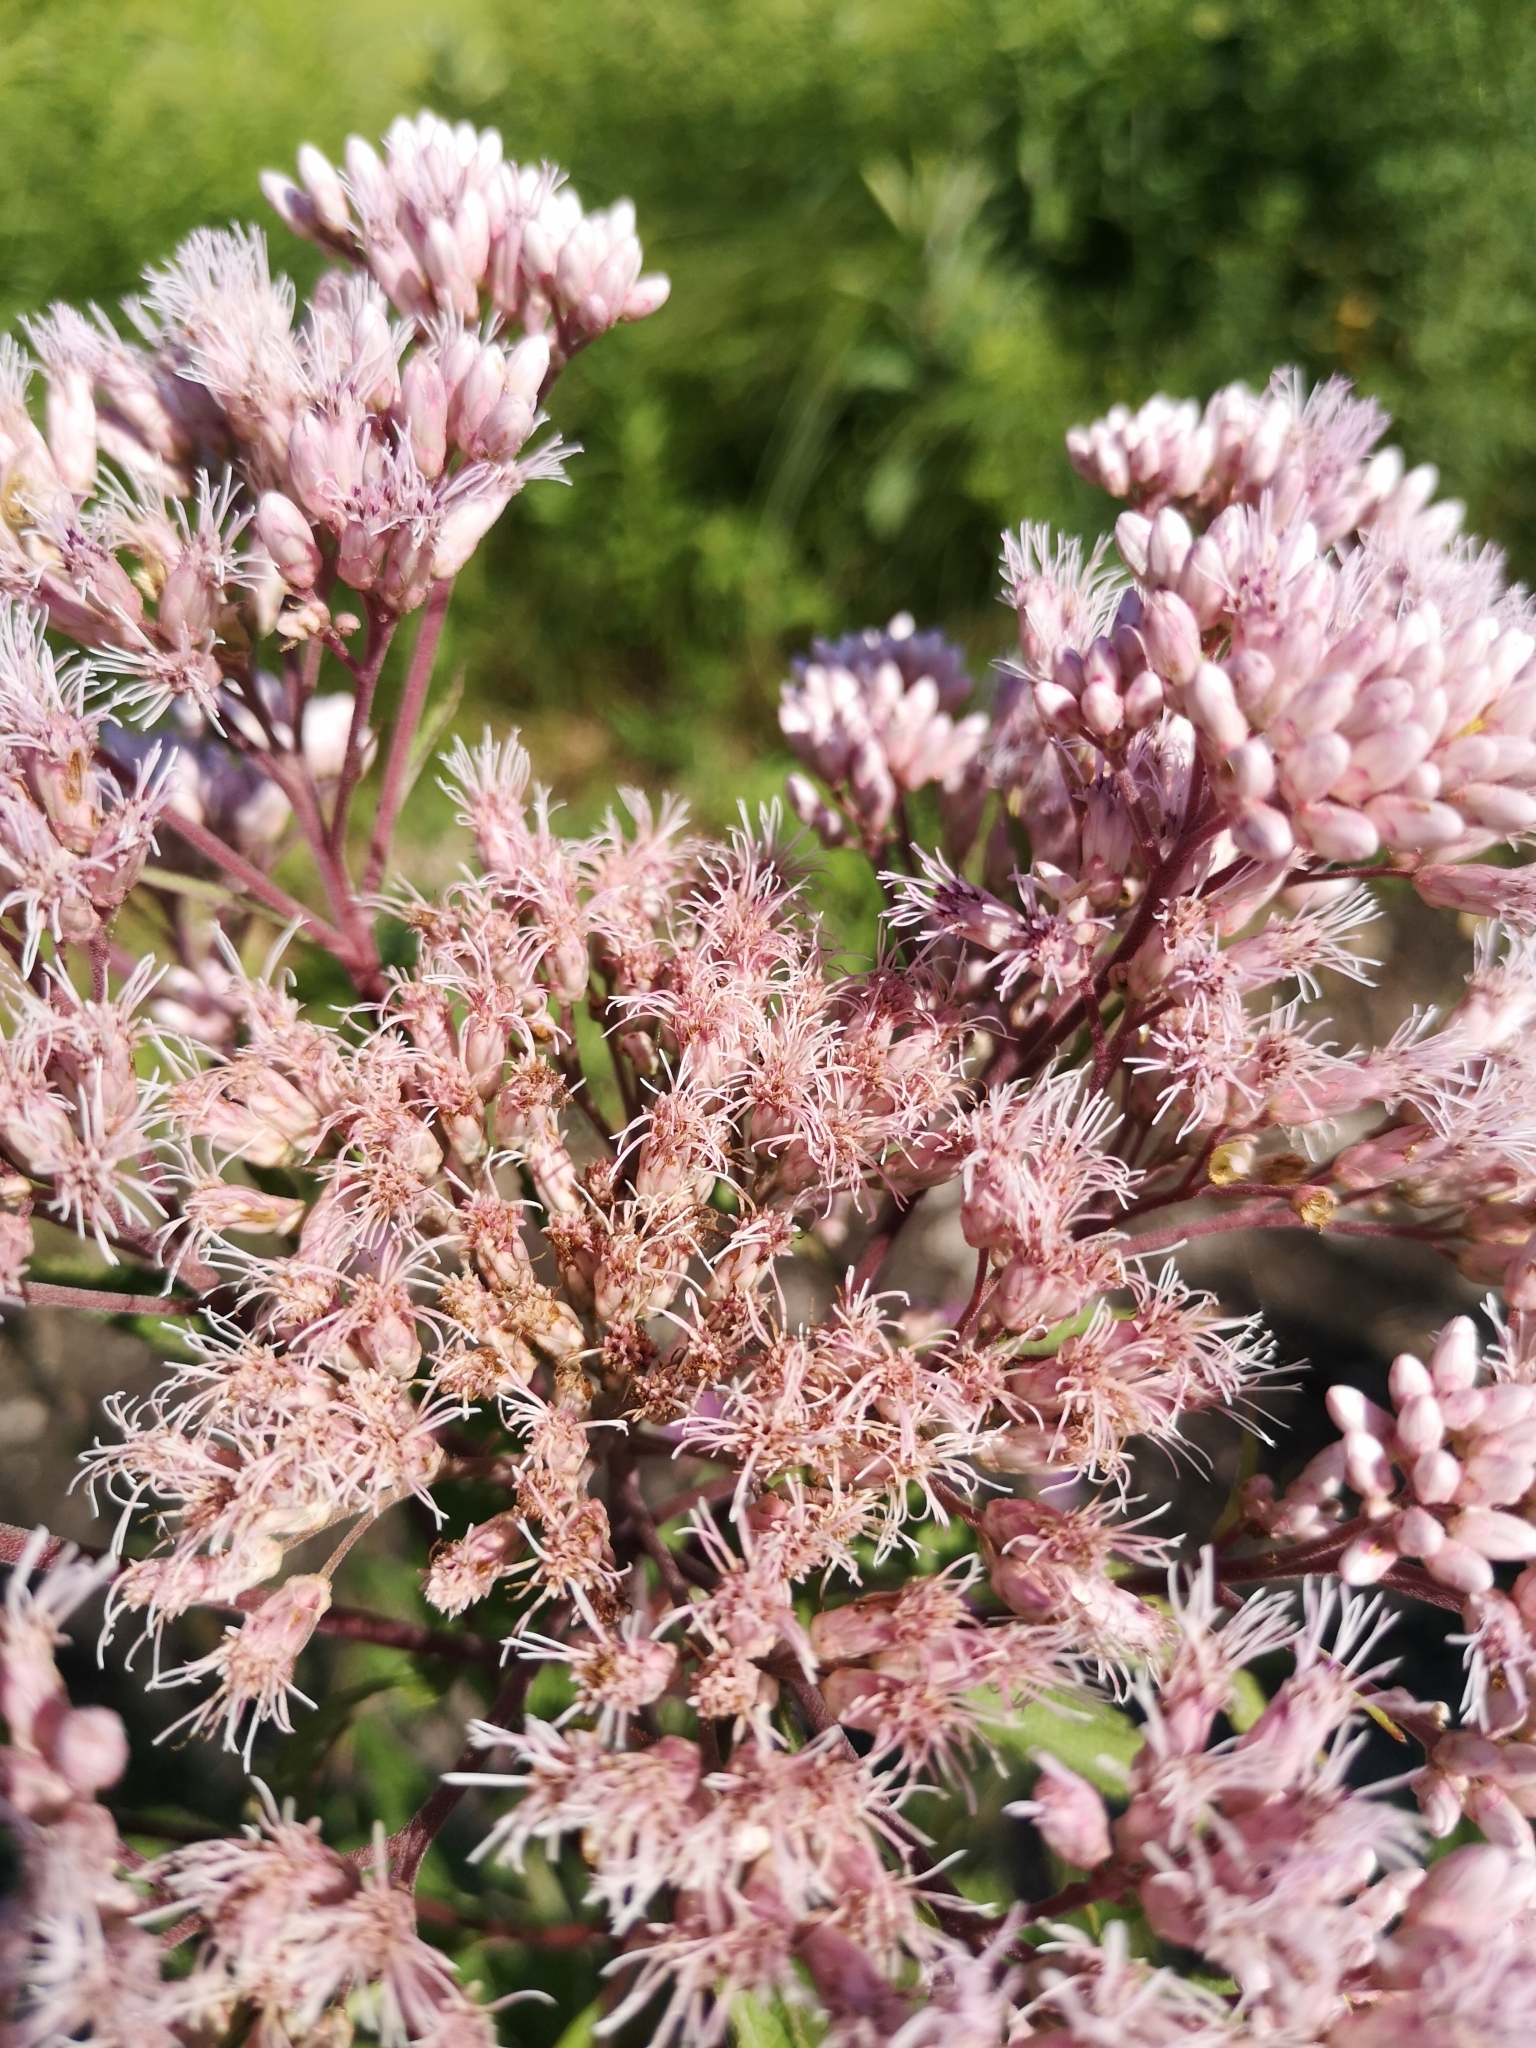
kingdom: Plantae
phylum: Tracheophyta
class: Magnoliopsida
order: Asterales
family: Asteraceae
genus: Eutrochium
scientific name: Eutrochium maculatum
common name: Spotted joe pye weed
